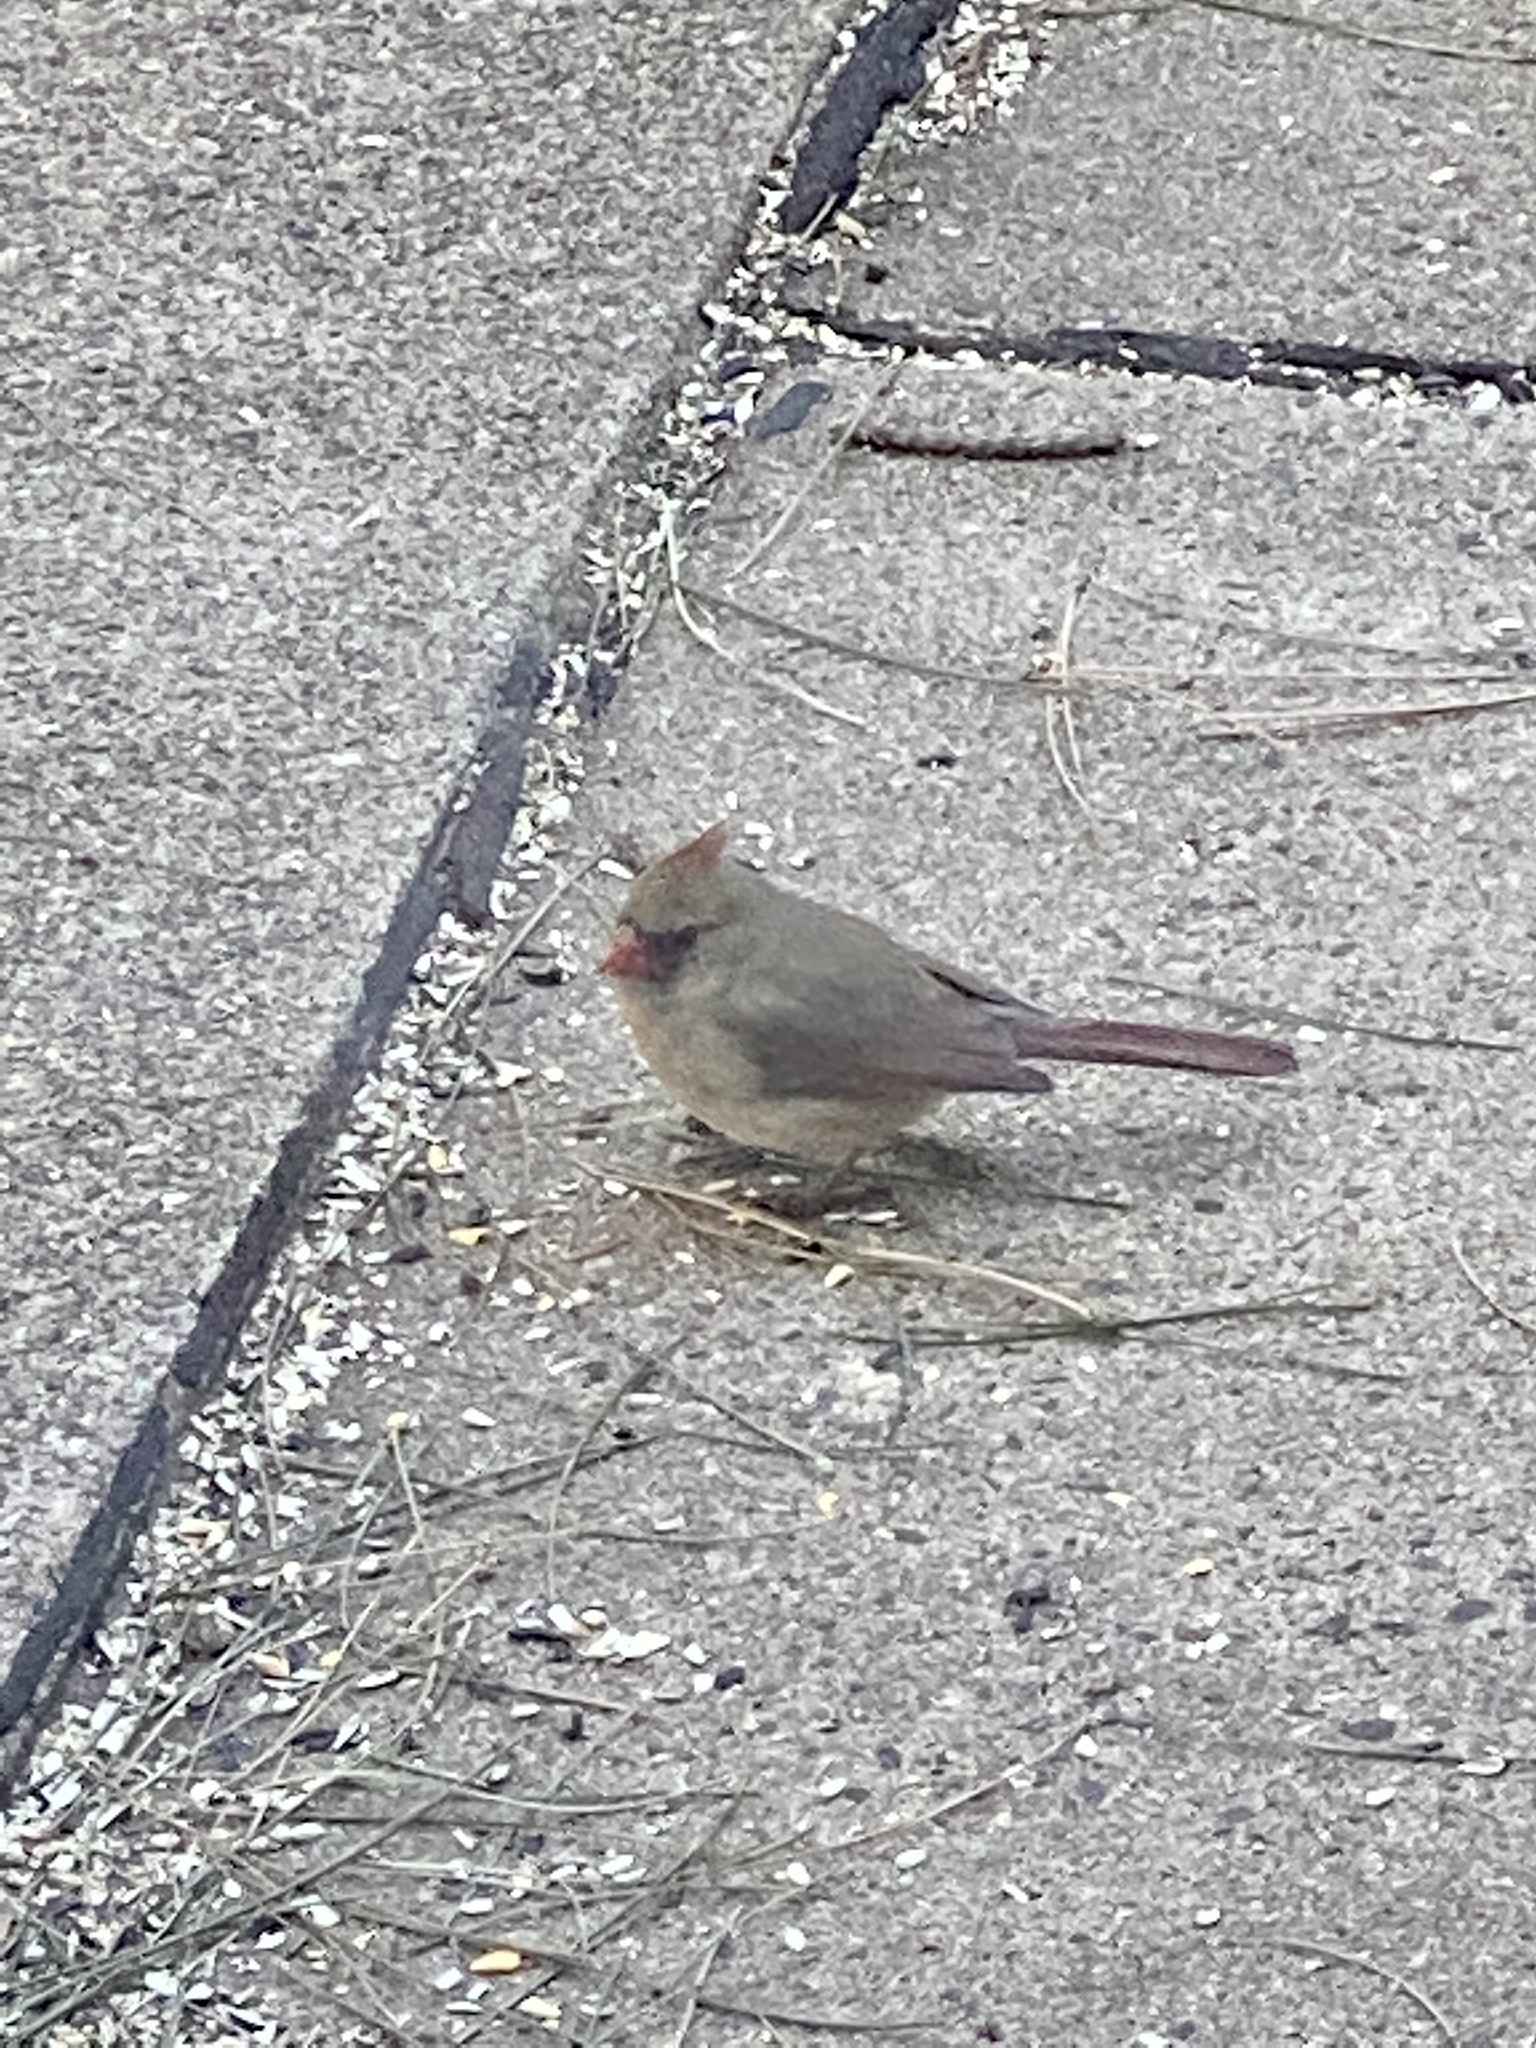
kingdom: Animalia
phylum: Chordata
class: Aves
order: Passeriformes
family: Cardinalidae
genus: Cardinalis
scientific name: Cardinalis cardinalis
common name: Northern cardinal
